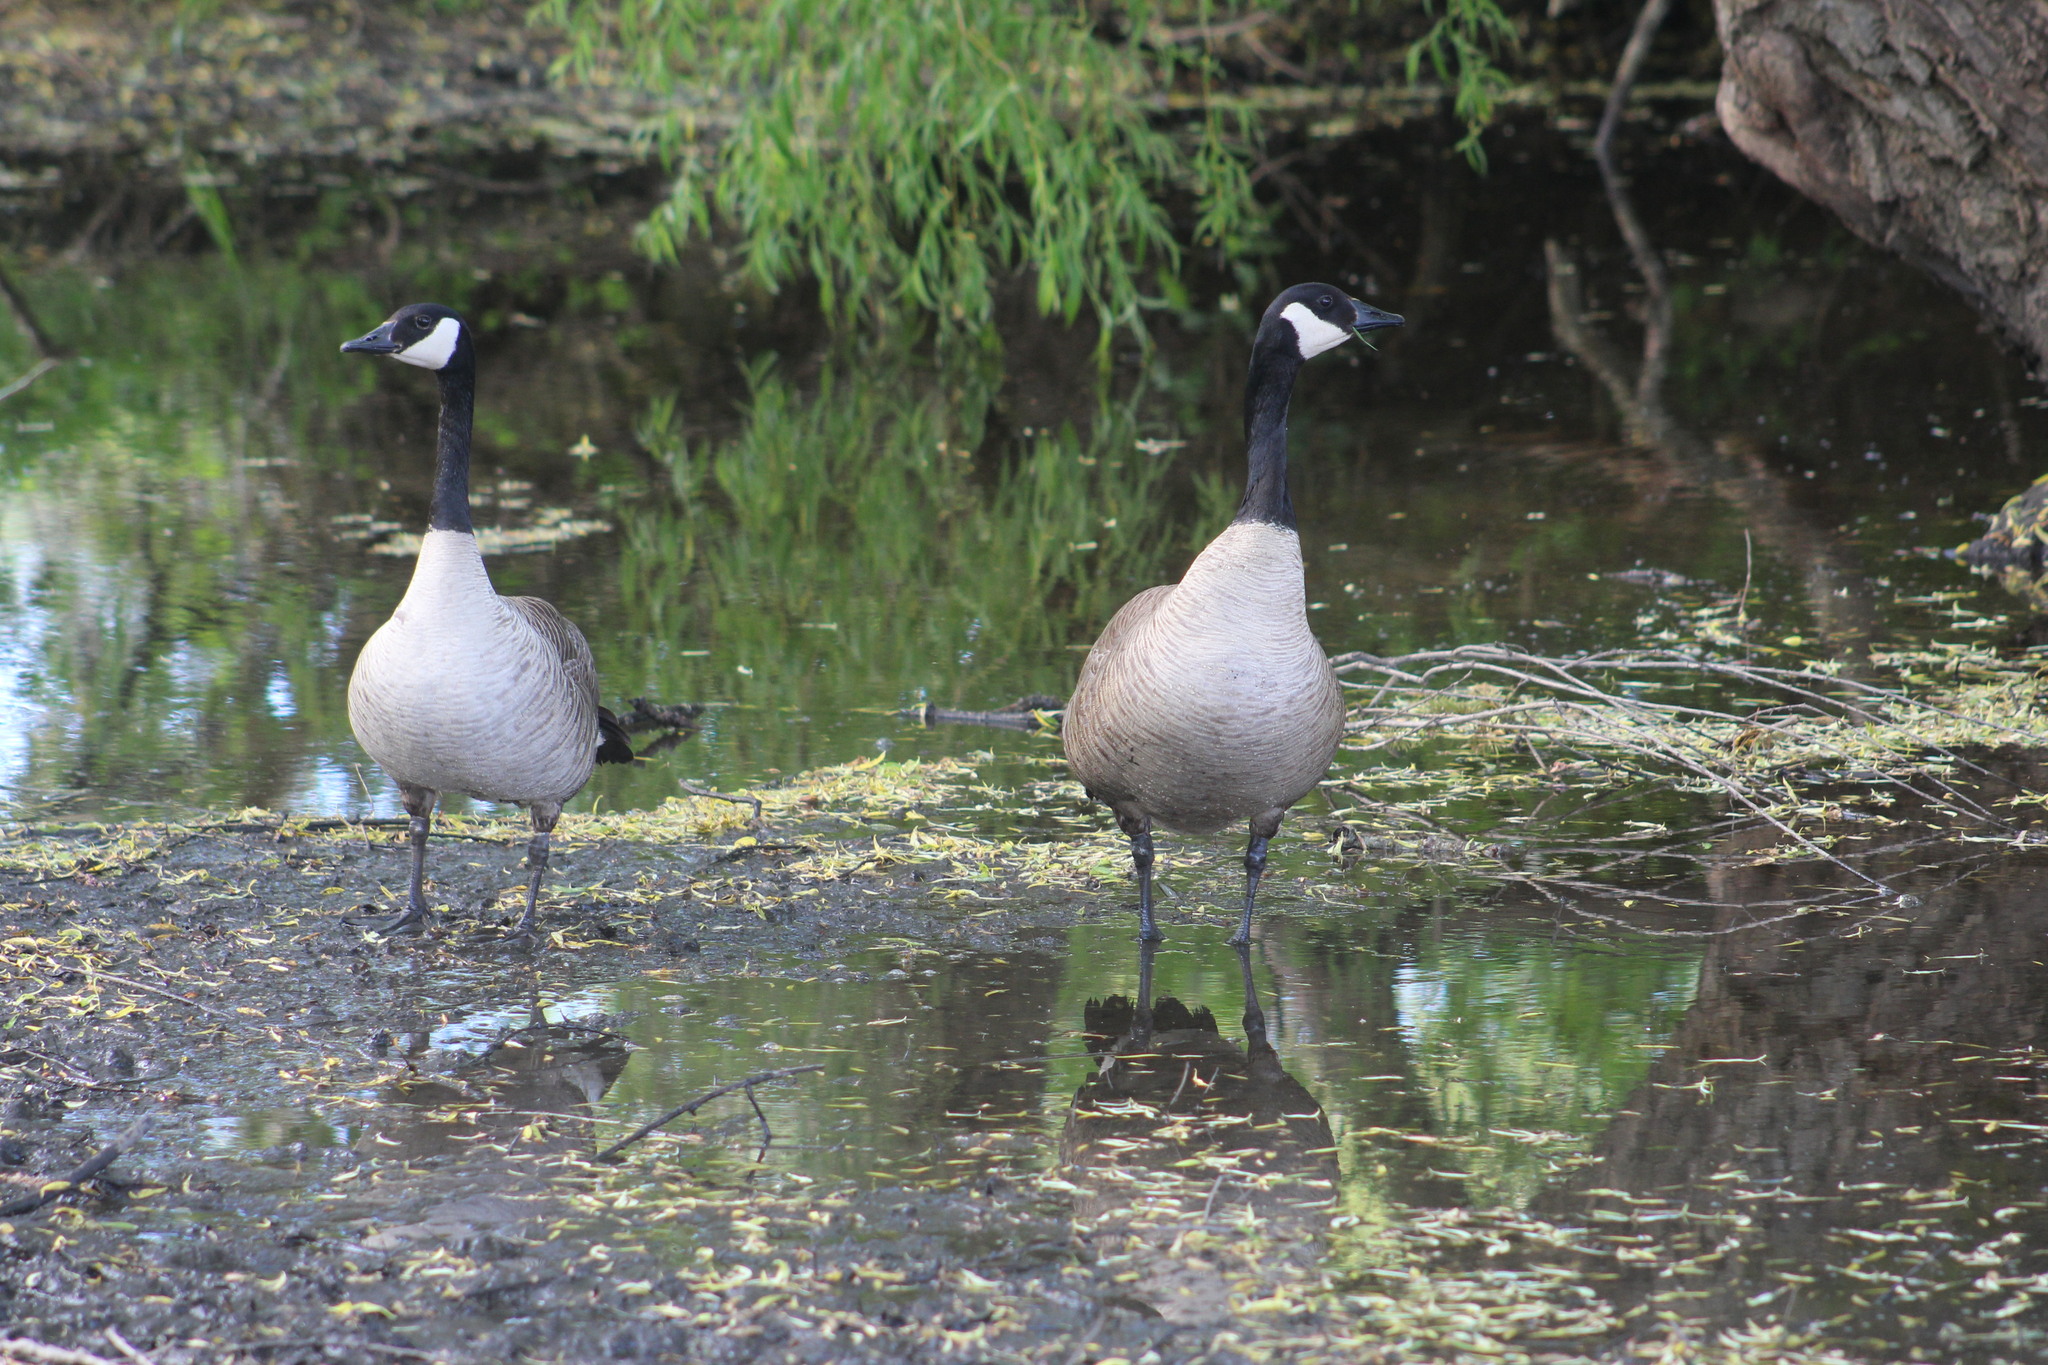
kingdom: Animalia
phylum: Chordata
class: Aves
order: Anseriformes
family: Anatidae
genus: Branta
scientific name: Branta canadensis
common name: Canada goose
